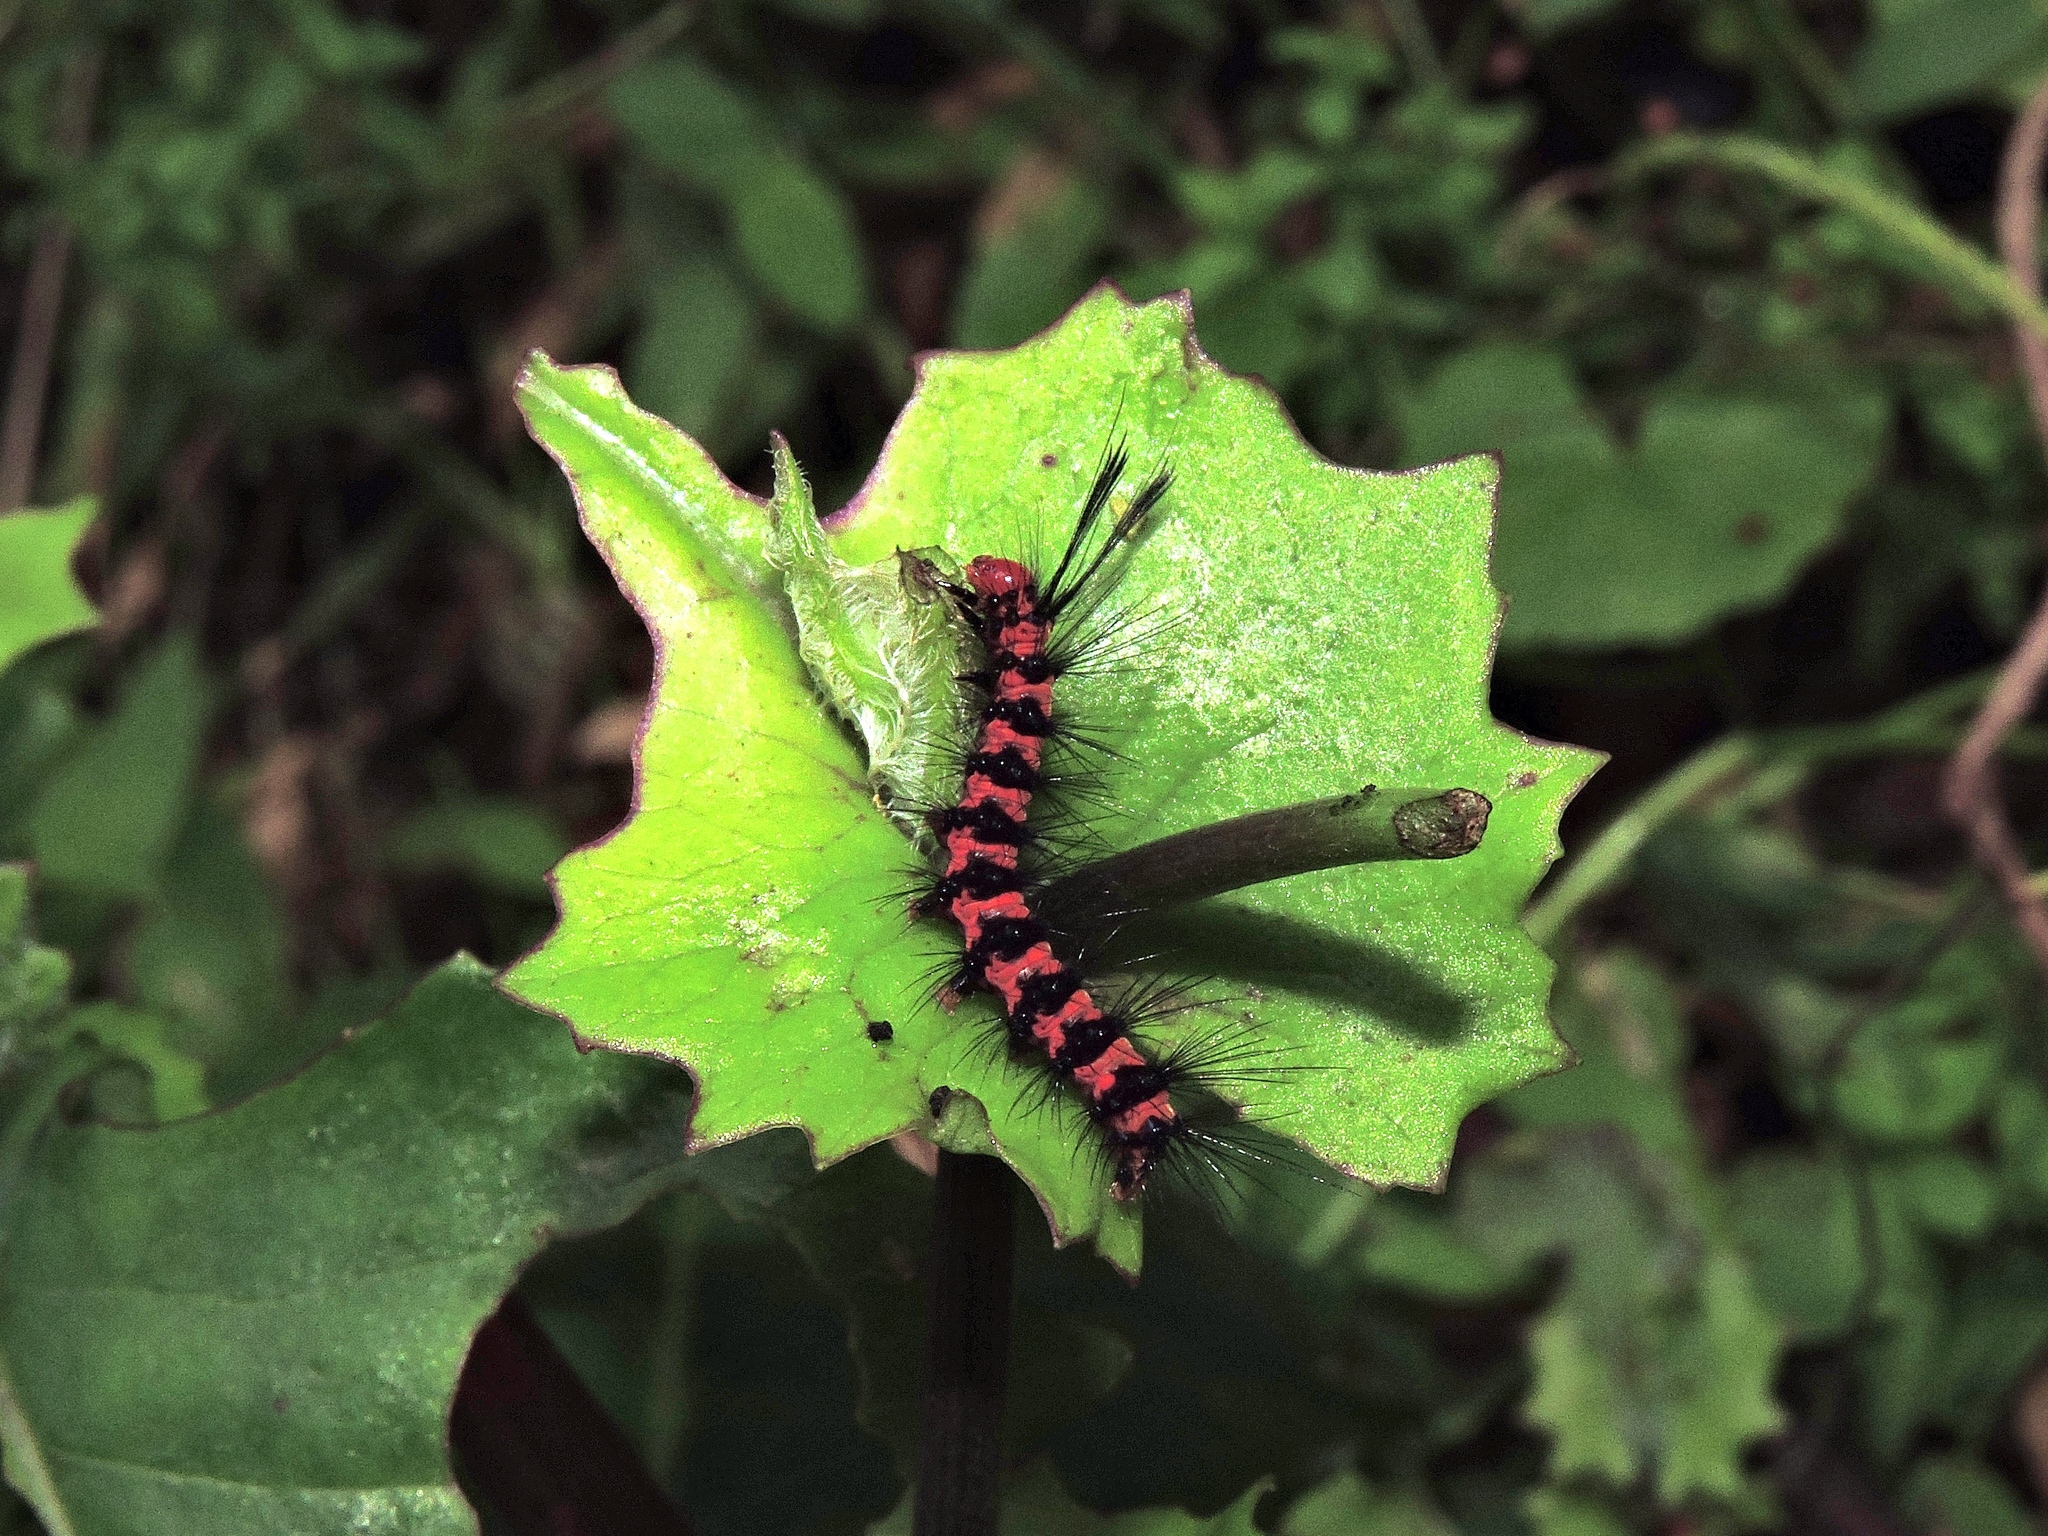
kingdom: Animalia
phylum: Arthropoda
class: Insecta
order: Lepidoptera
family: Erebidae
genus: Nyctemera
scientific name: Nyctemera lacticinia
